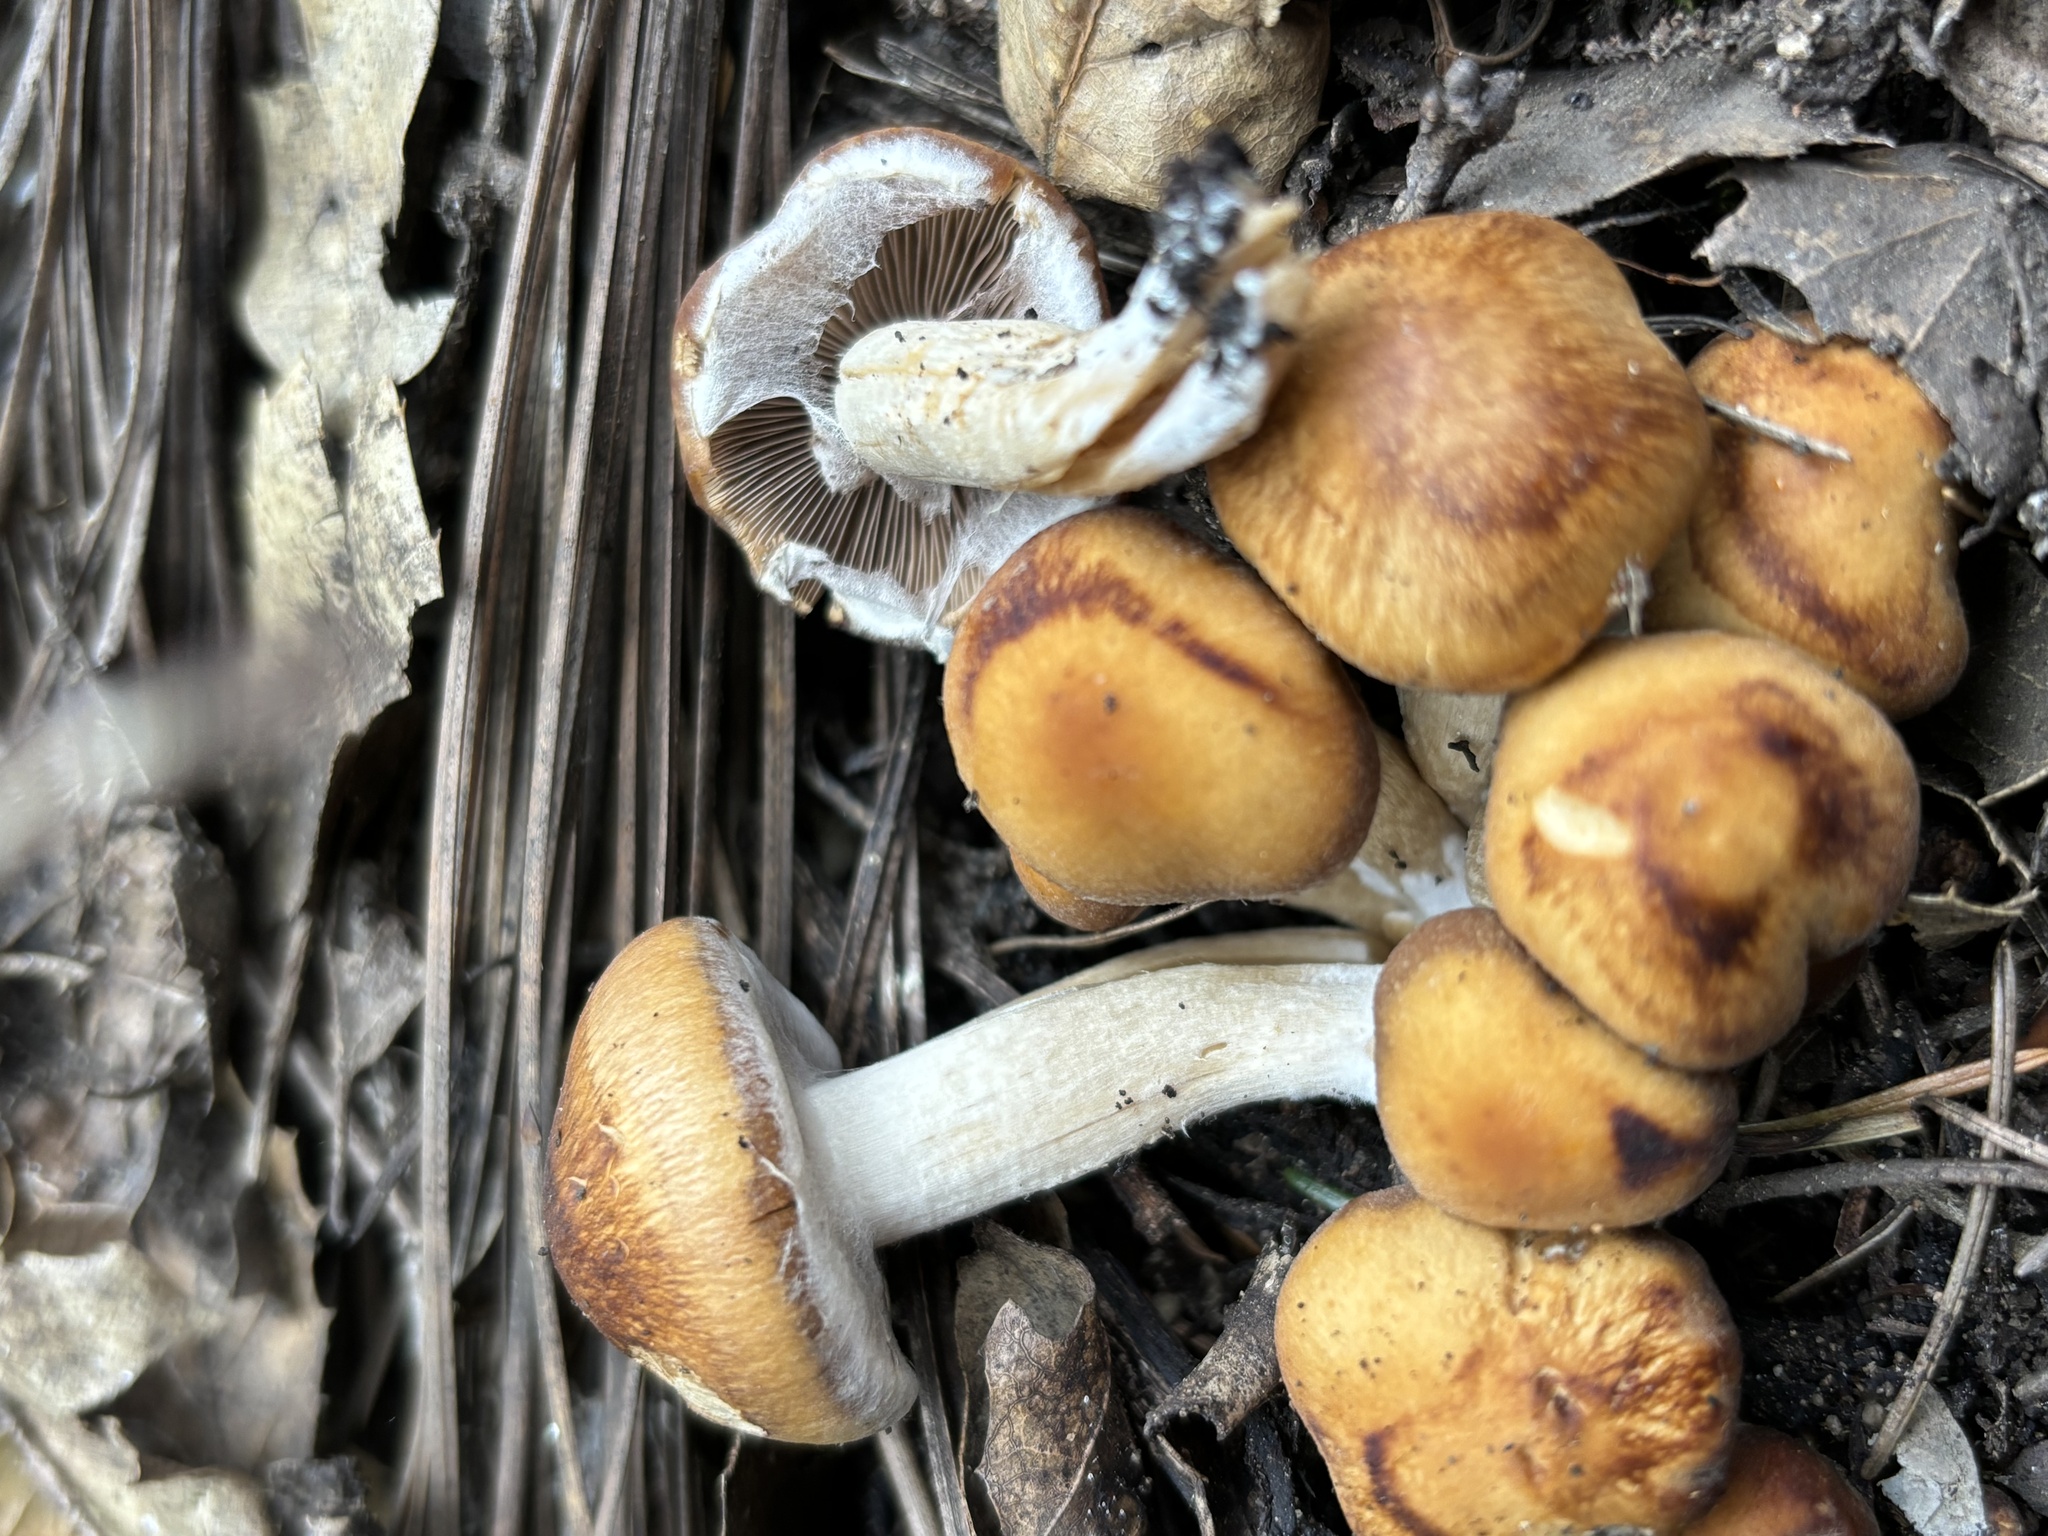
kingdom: Fungi
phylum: Basidiomycota
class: Agaricomycetes
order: Agaricales
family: Psathyrellaceae
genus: Psathyrella
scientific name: Psathyrella piluliformis
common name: Common stump brittlestem
